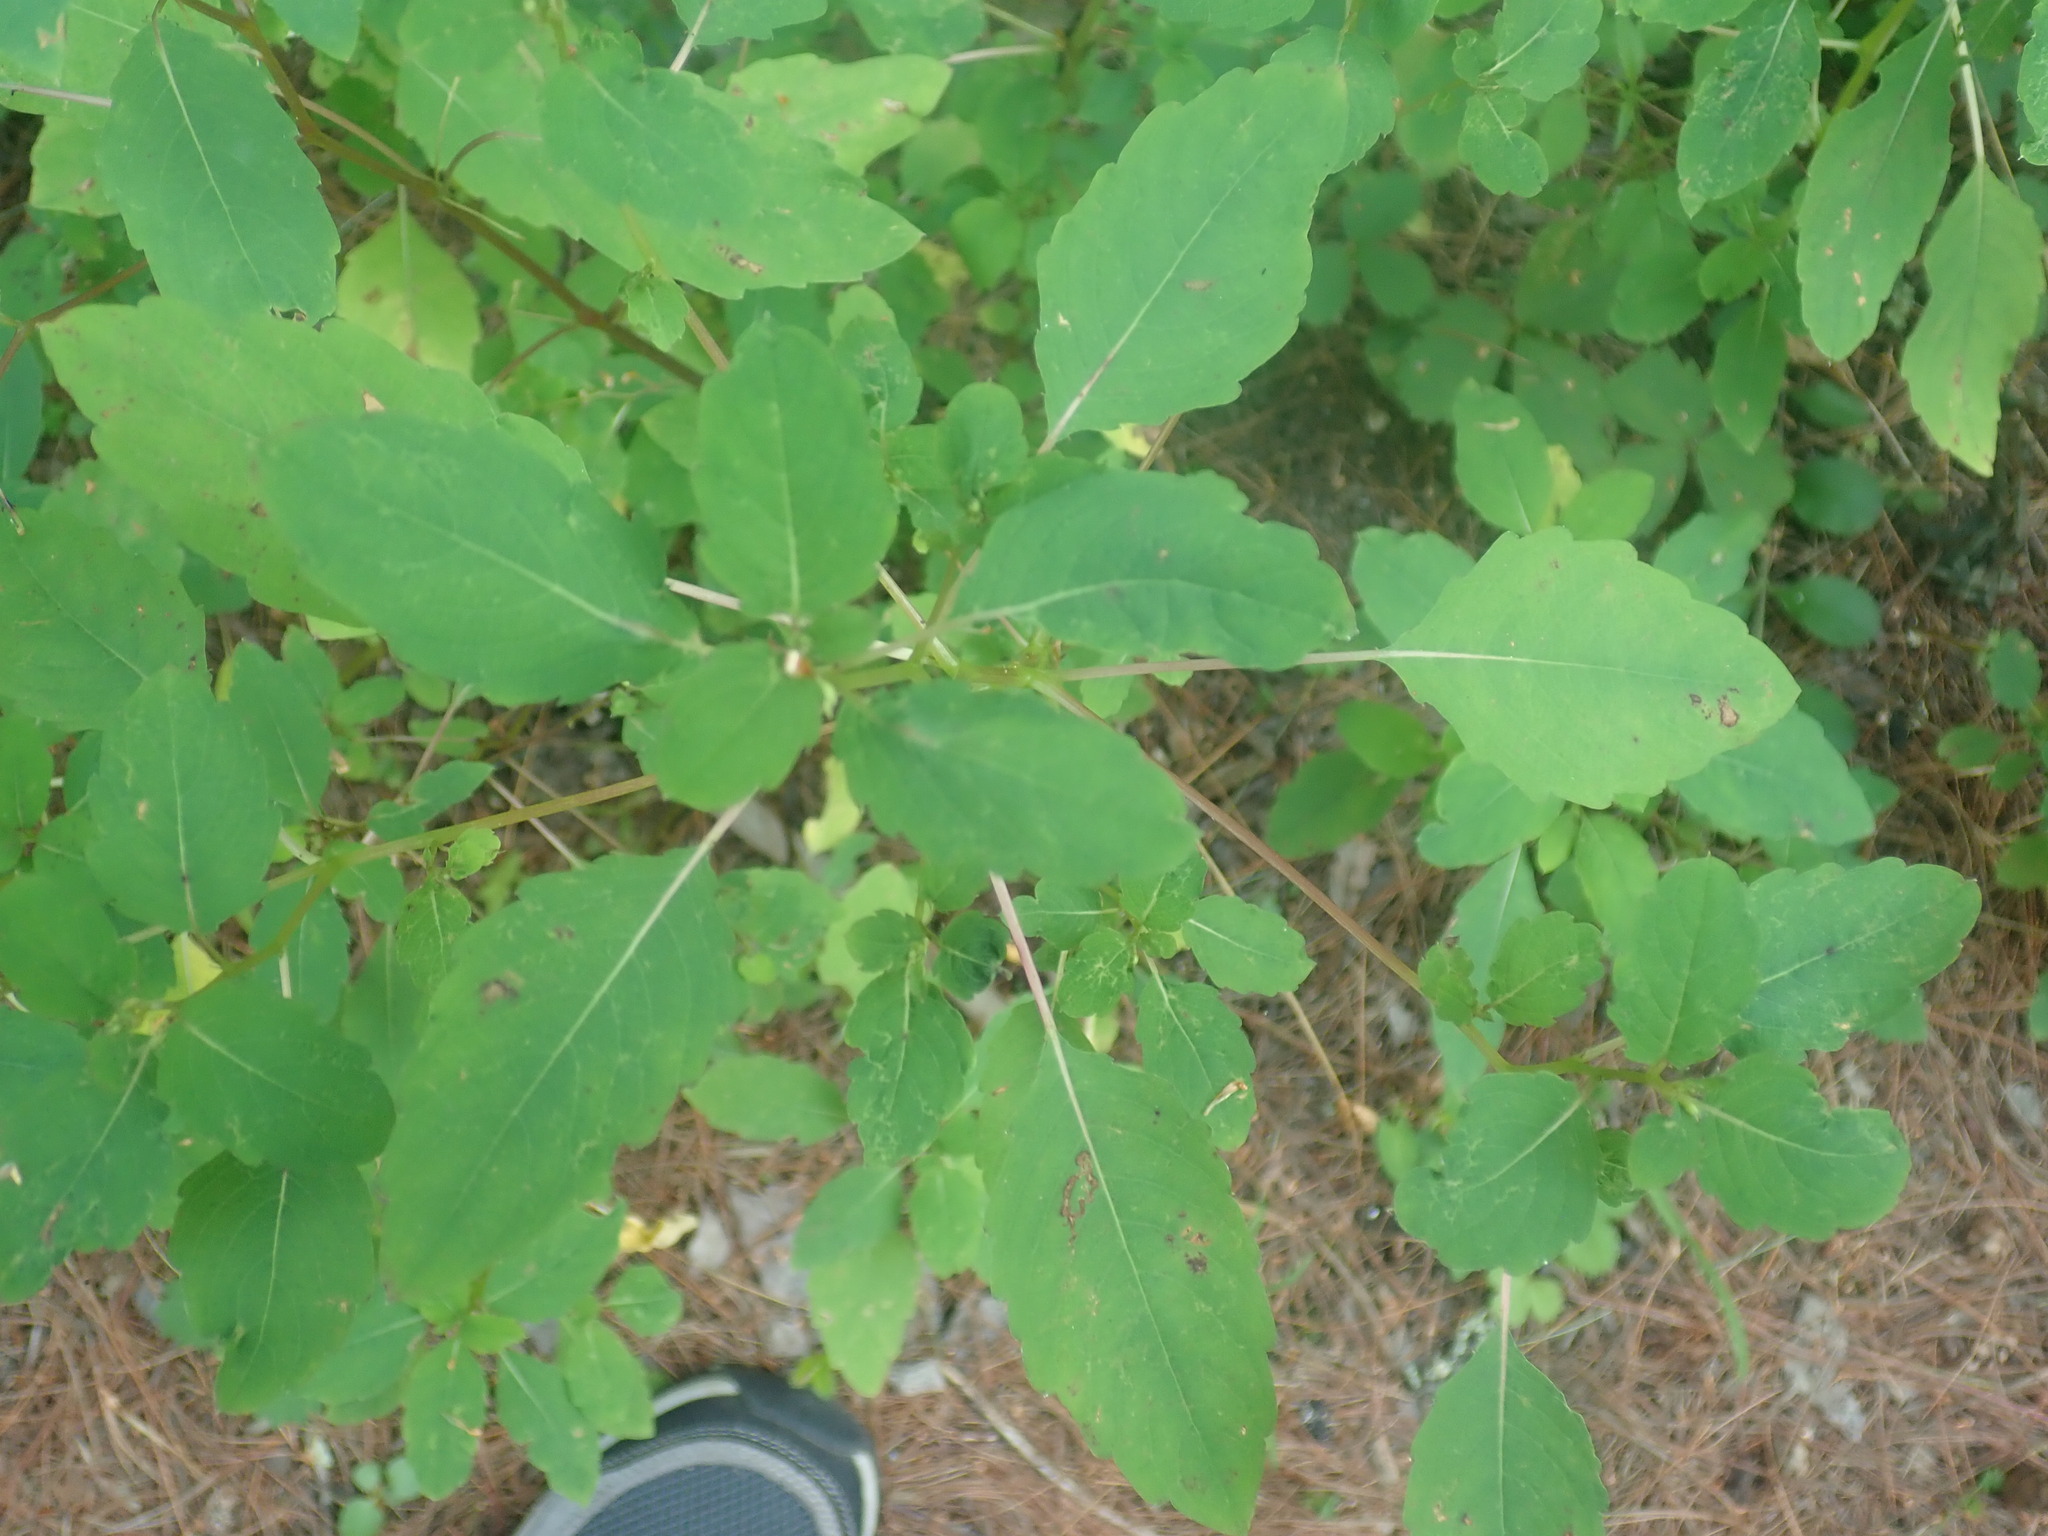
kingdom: Plantae
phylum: Tracheophyta
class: Magnoliopsida
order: Ericales
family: Balsaminaceae
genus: Impatiens
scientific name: Impatiens
